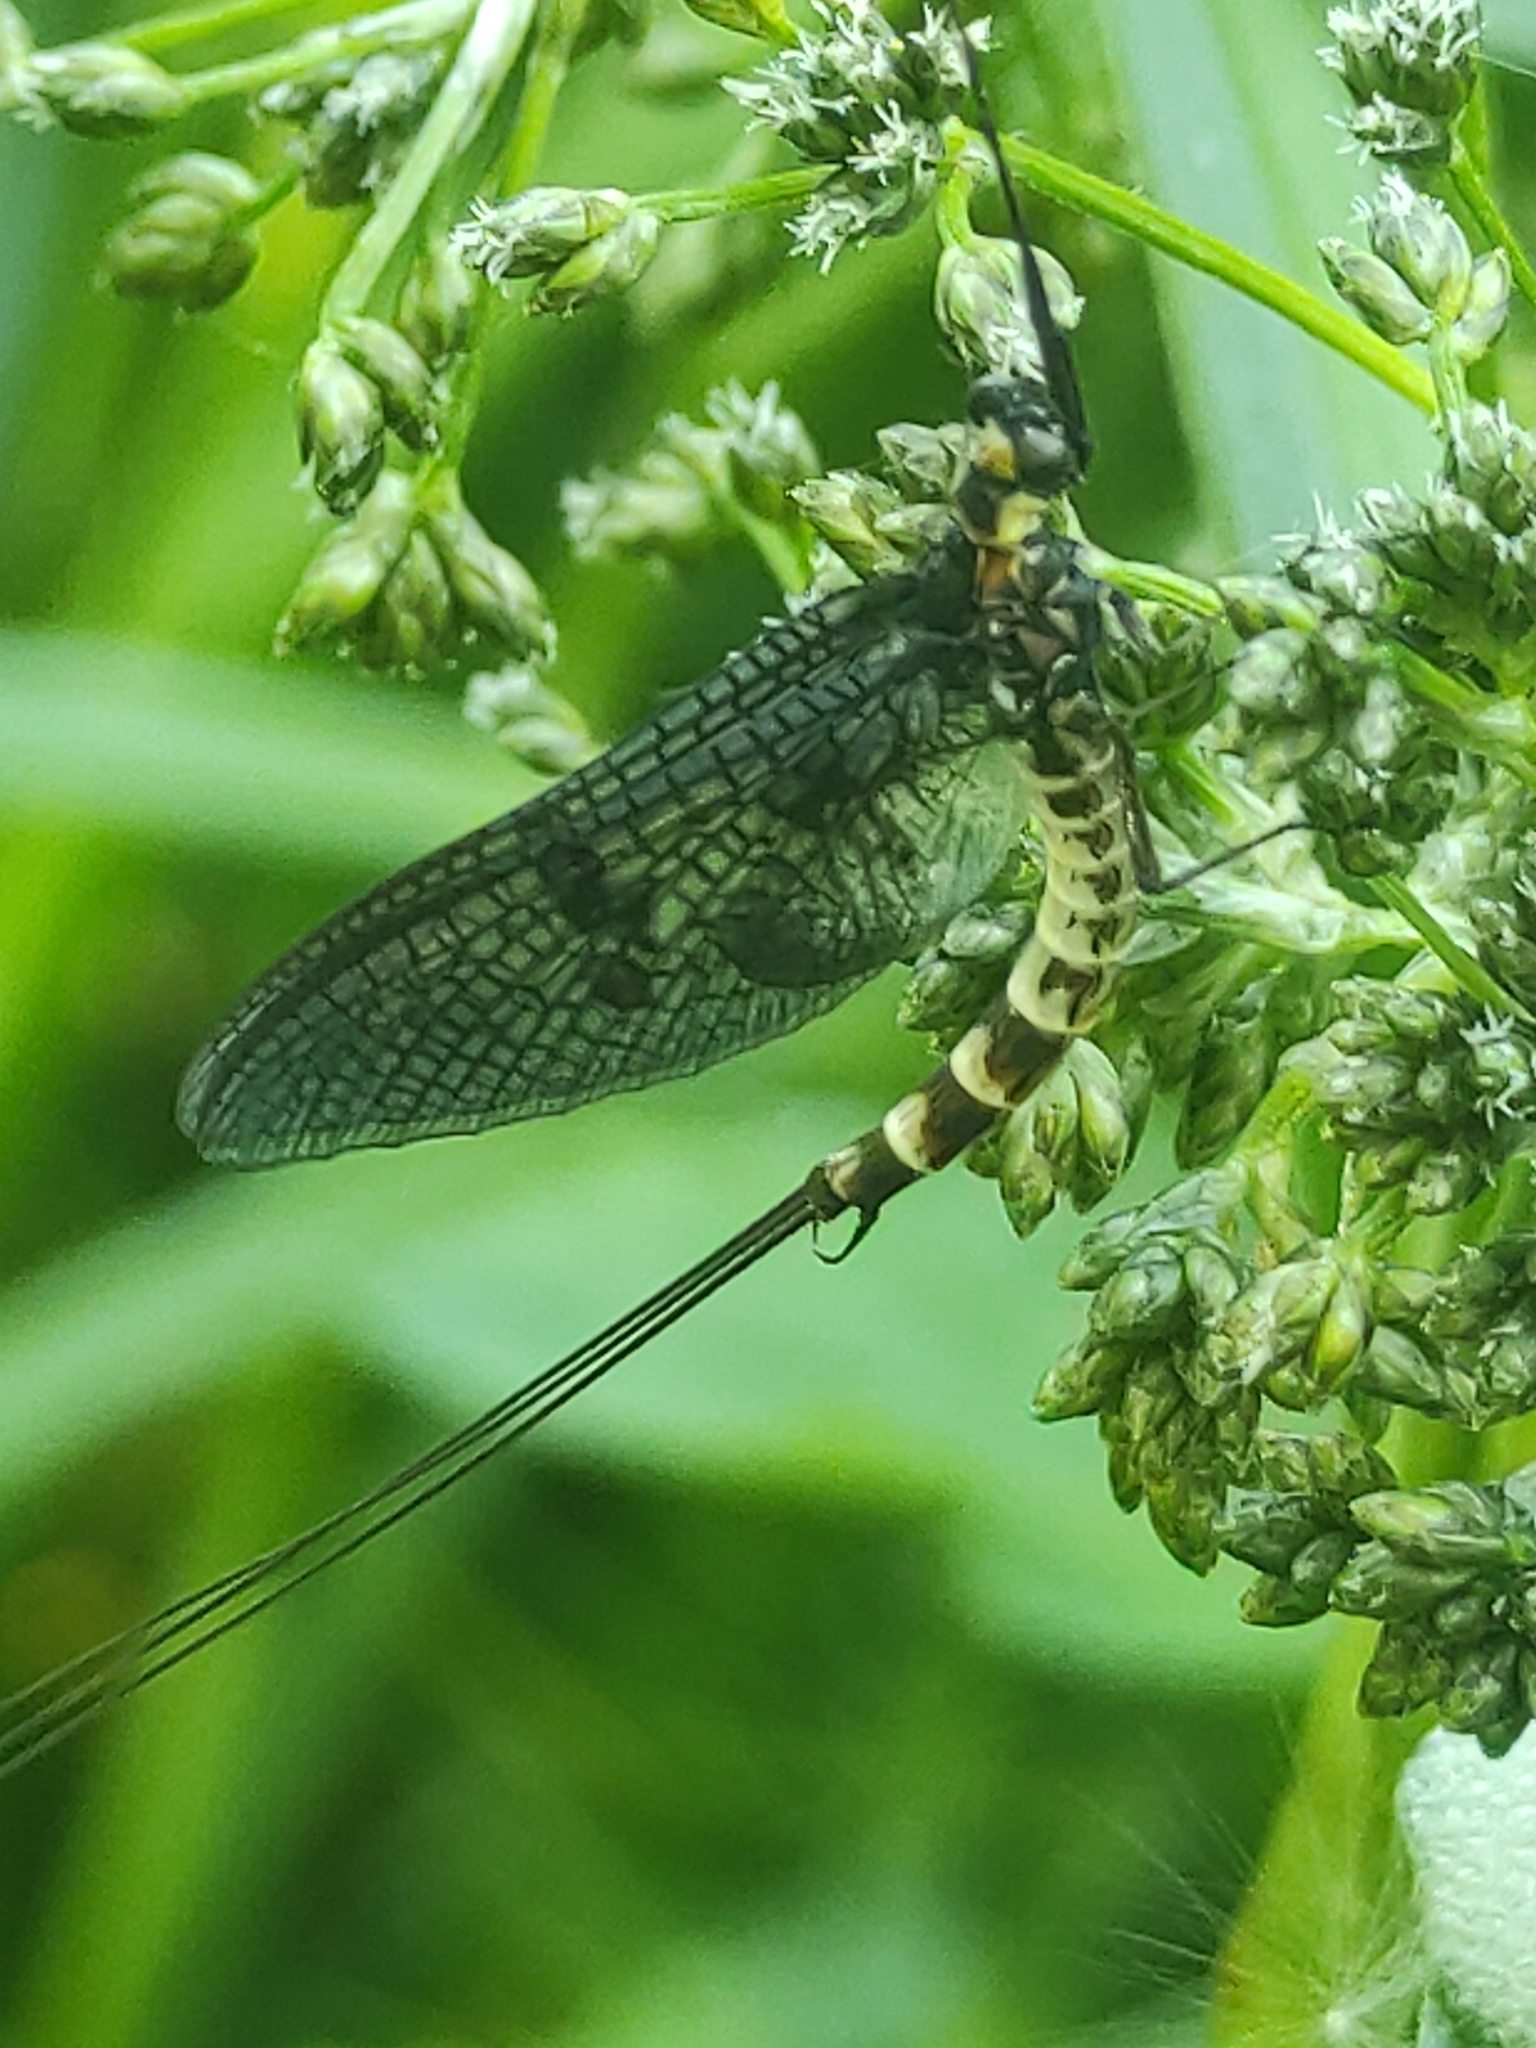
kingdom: Animalia
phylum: Arthropoda
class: Insecta
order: Ephemeroptera
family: Ephemeridae
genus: Ephemera
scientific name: Ephemera danica
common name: Green dun
